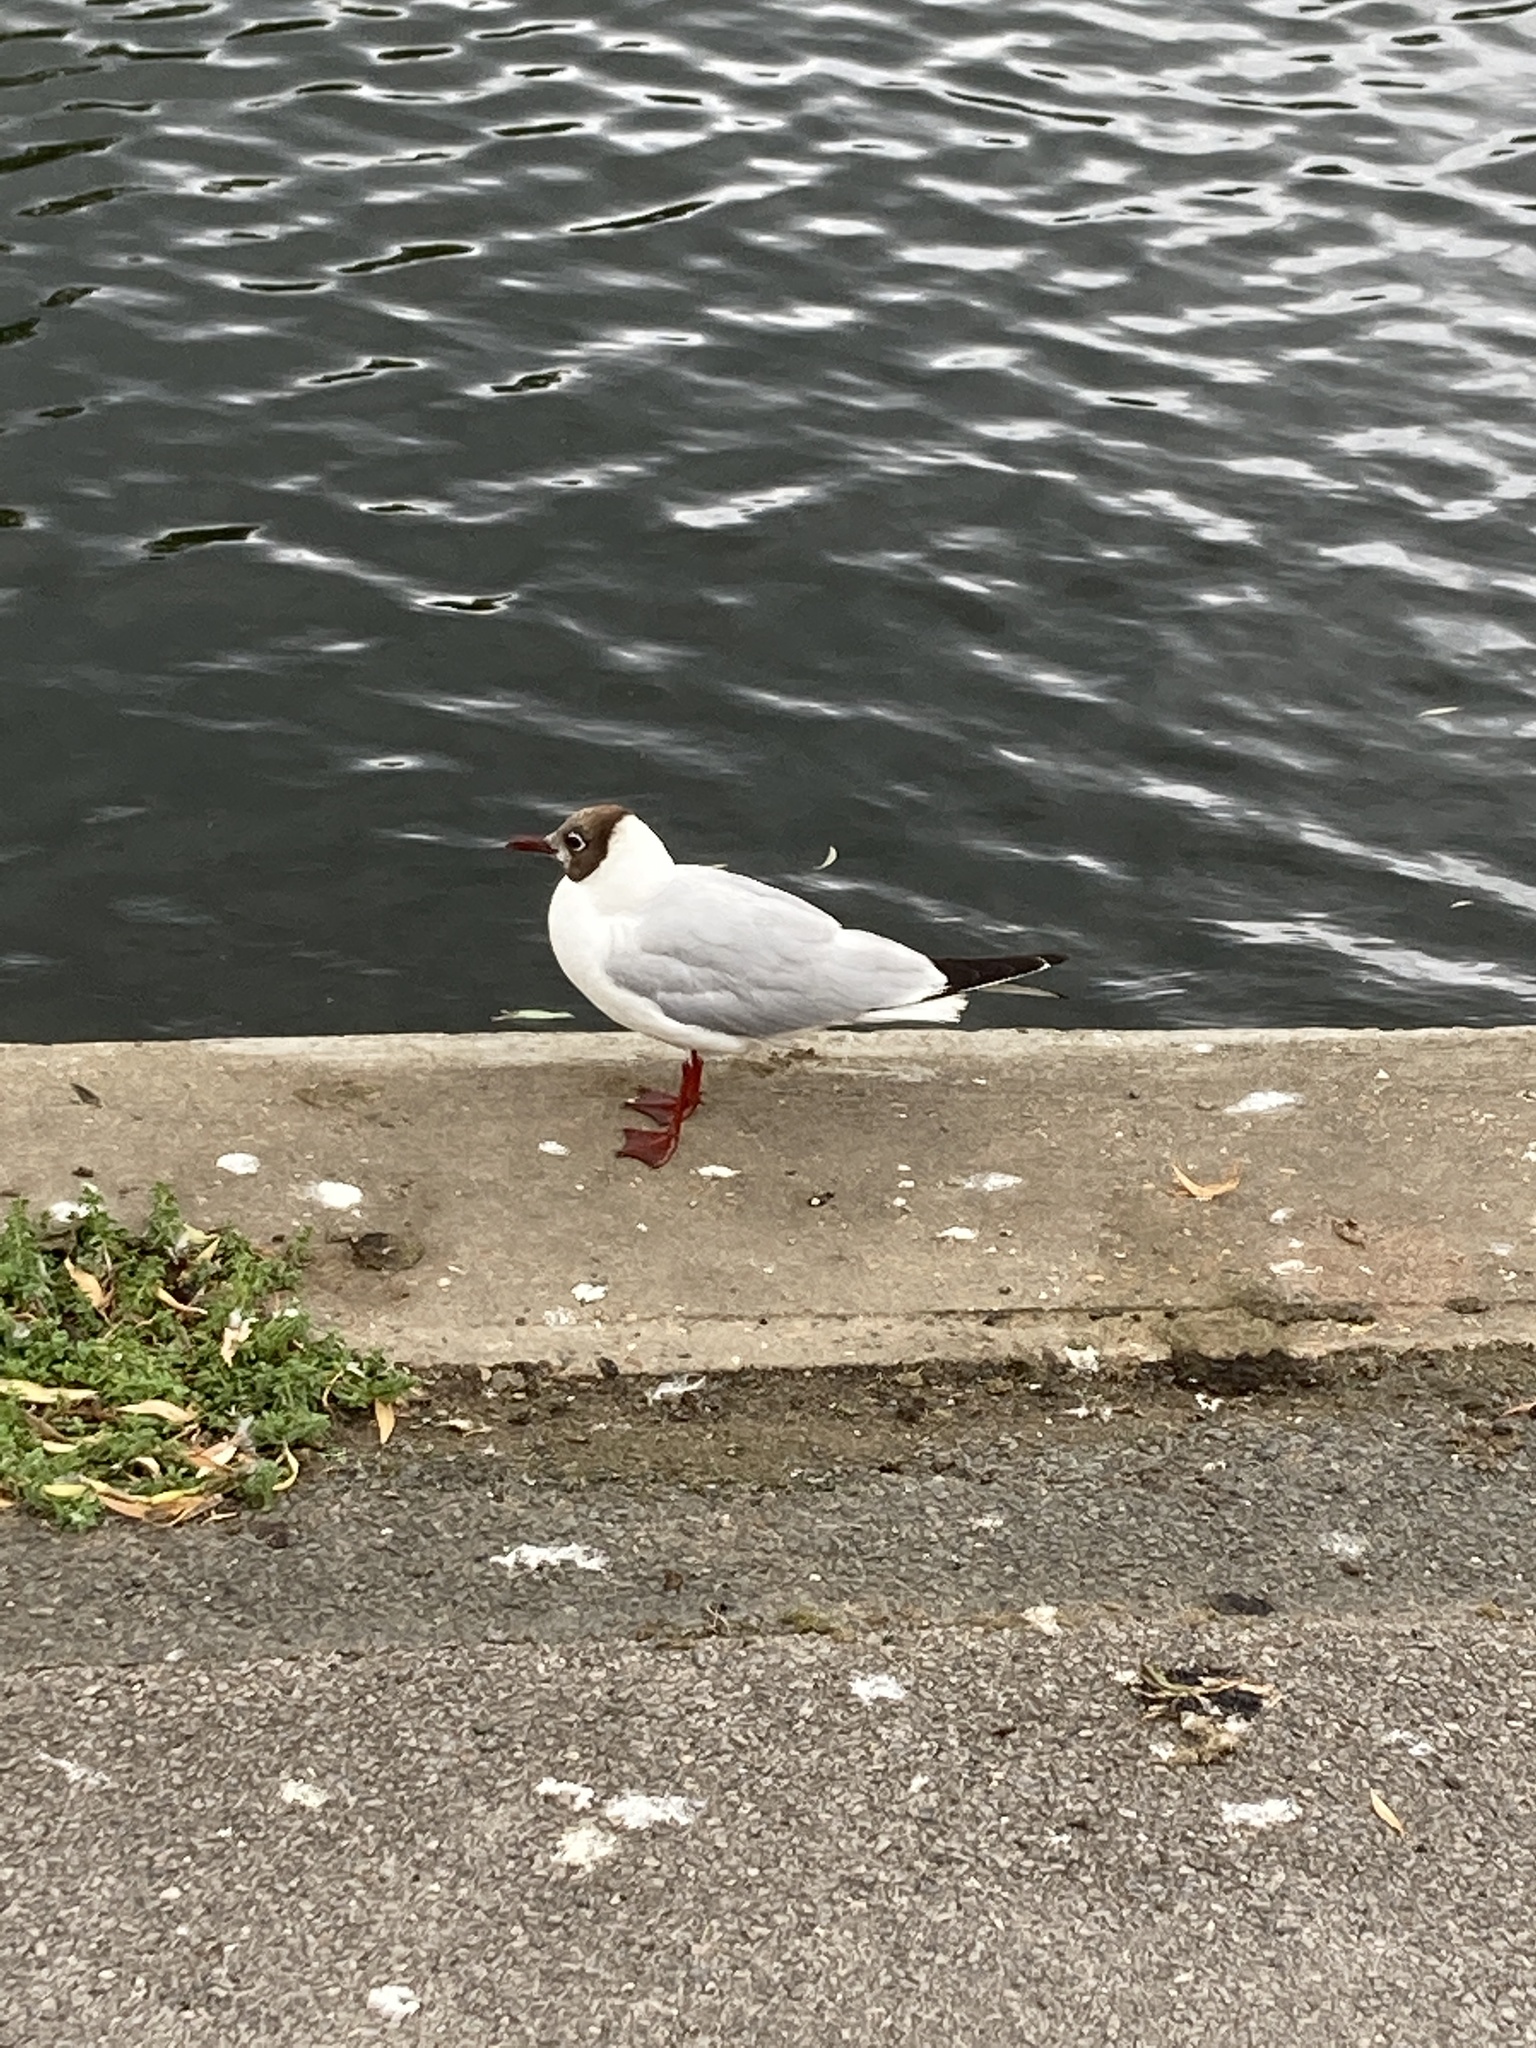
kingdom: Animalia
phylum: Chordata
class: Aves
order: Charadriiformes
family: Laridae
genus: Chroicocephalus
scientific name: Chroicocephalus ridibundus
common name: Black-headed gull
